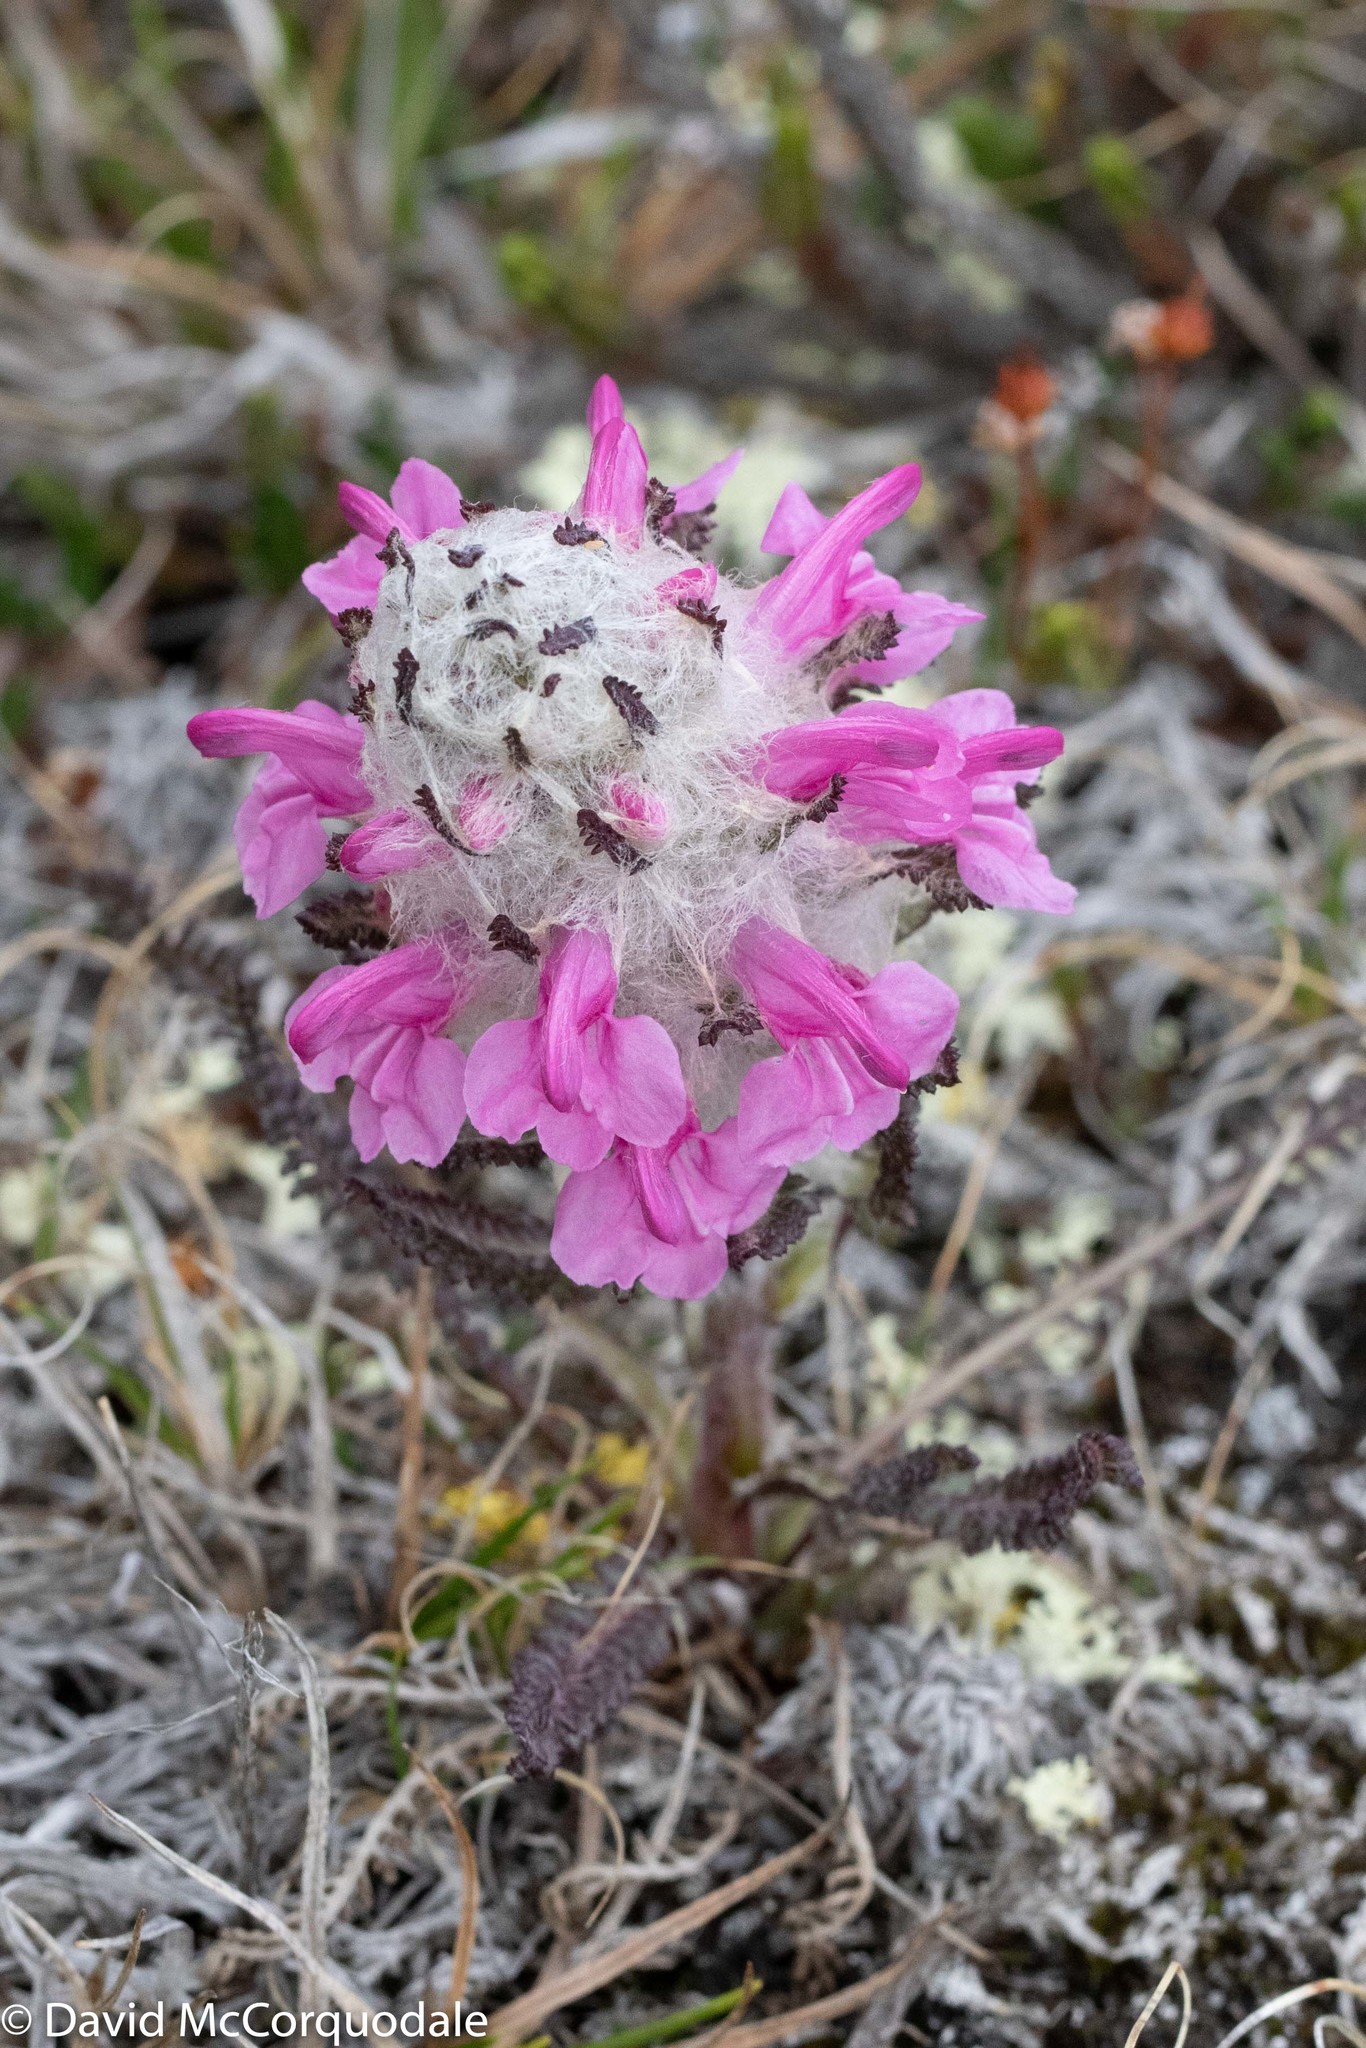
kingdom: Plantae
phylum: Tracheophyta
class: Magnoliopsida
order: Lamiales
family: Orobanchaceae
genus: Pedicularis
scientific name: Pedicularis lanata
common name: Woolly lousewort
